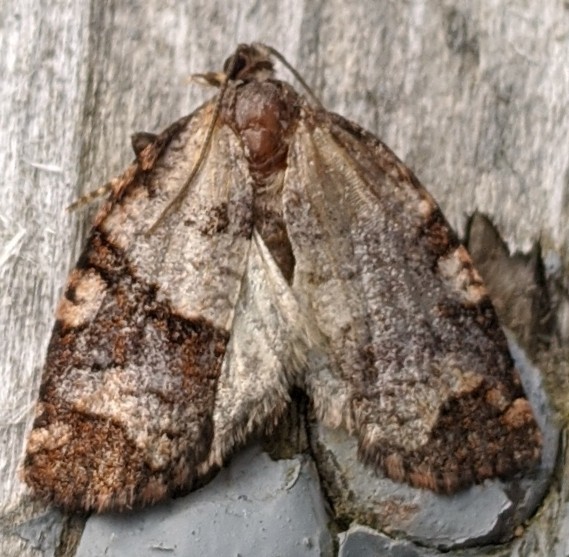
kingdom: Animalia
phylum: Arthropoda
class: Insecta
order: Lepidoptera
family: Tortricidae
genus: Archips
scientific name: Archips alberta
